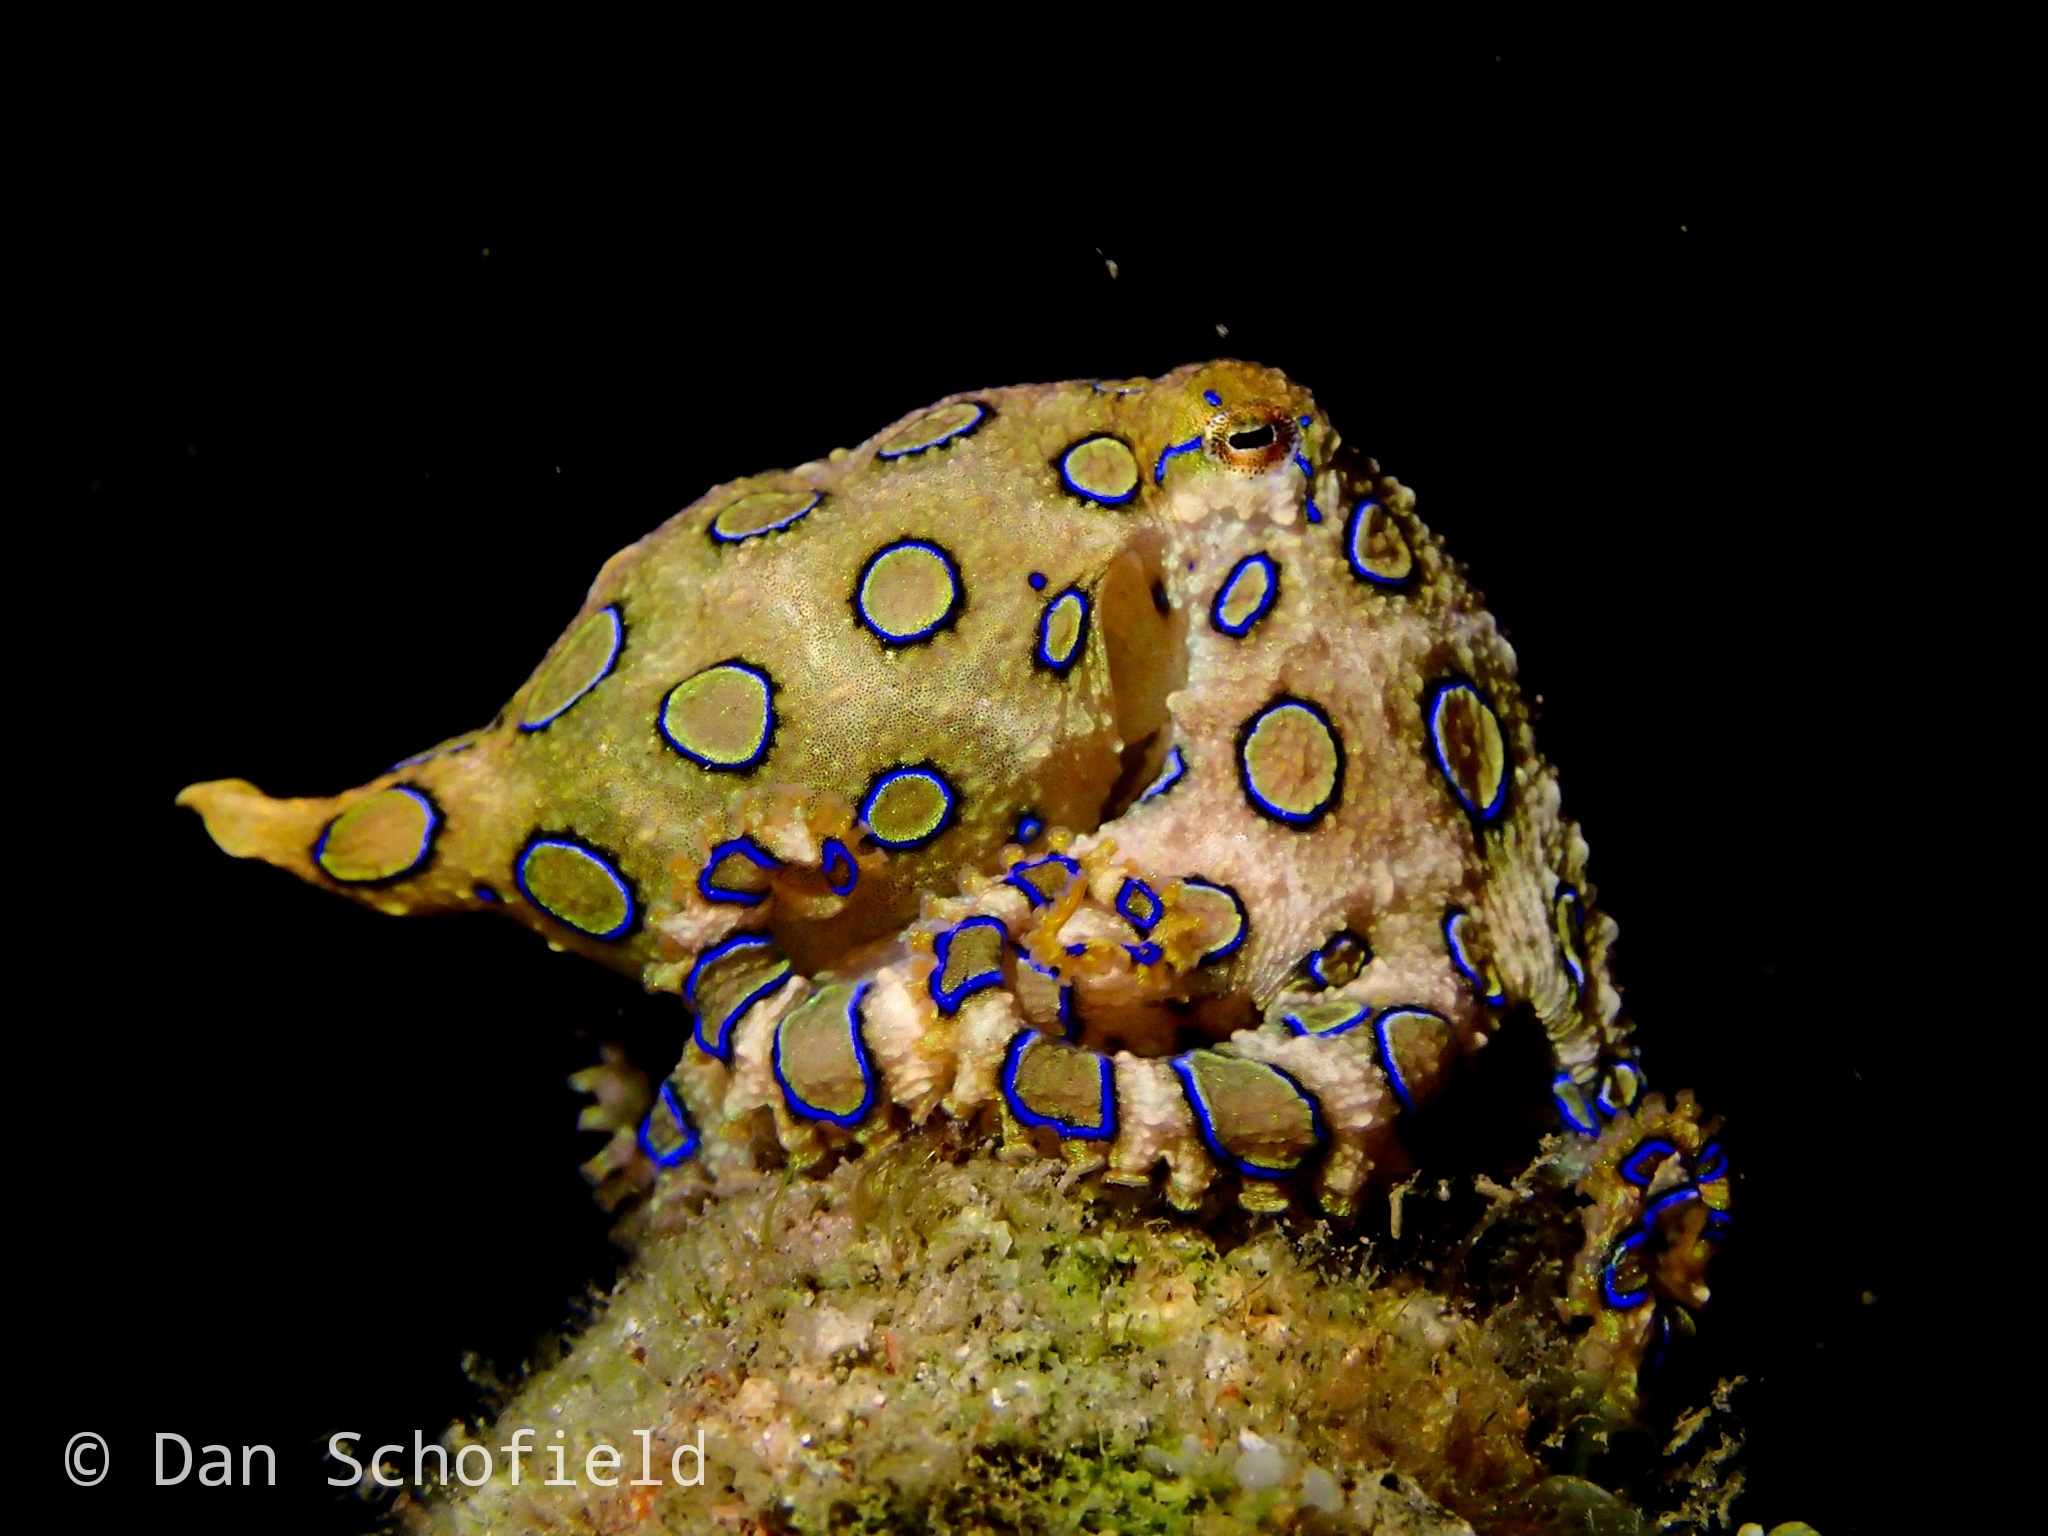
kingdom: Animalia
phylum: Mollusca
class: Cephalopoda
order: Octopoda
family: Octopodidae
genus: Hapalochlaena
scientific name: Hapalochlaena lunulata
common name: Greater blue-ringed octopus
